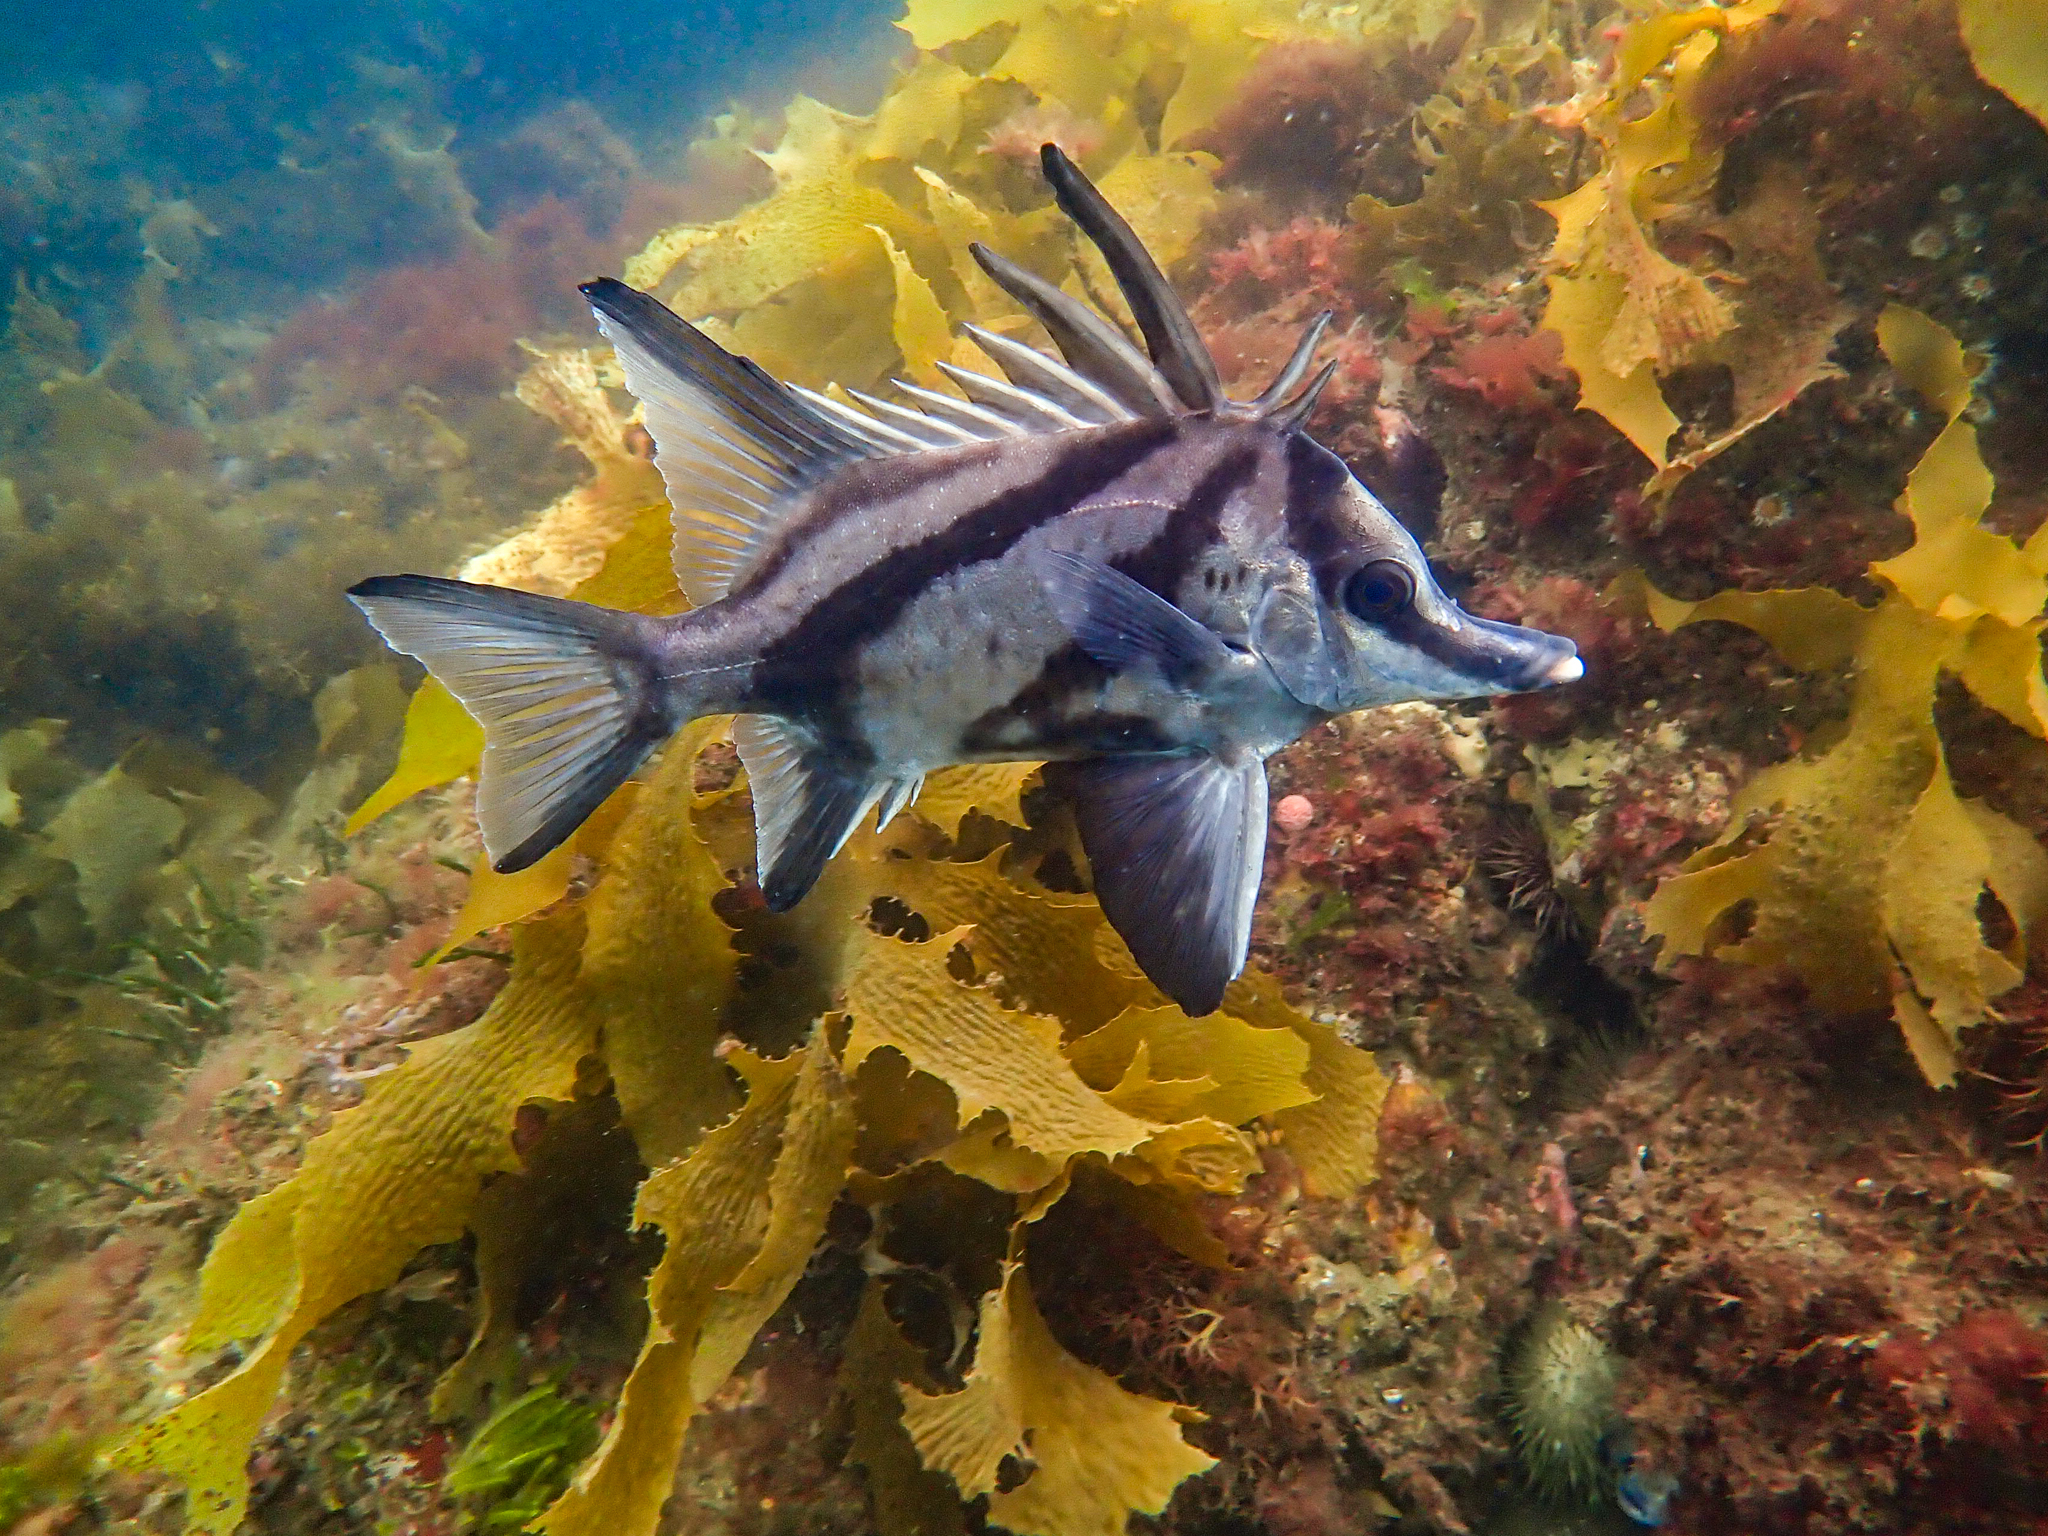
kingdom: Animalia
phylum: Chordata
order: Perciformes
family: Pentacerotidae
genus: Pentaceropsis
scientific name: Pentaceropsis recurvirostris
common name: Longsnout boarfish
